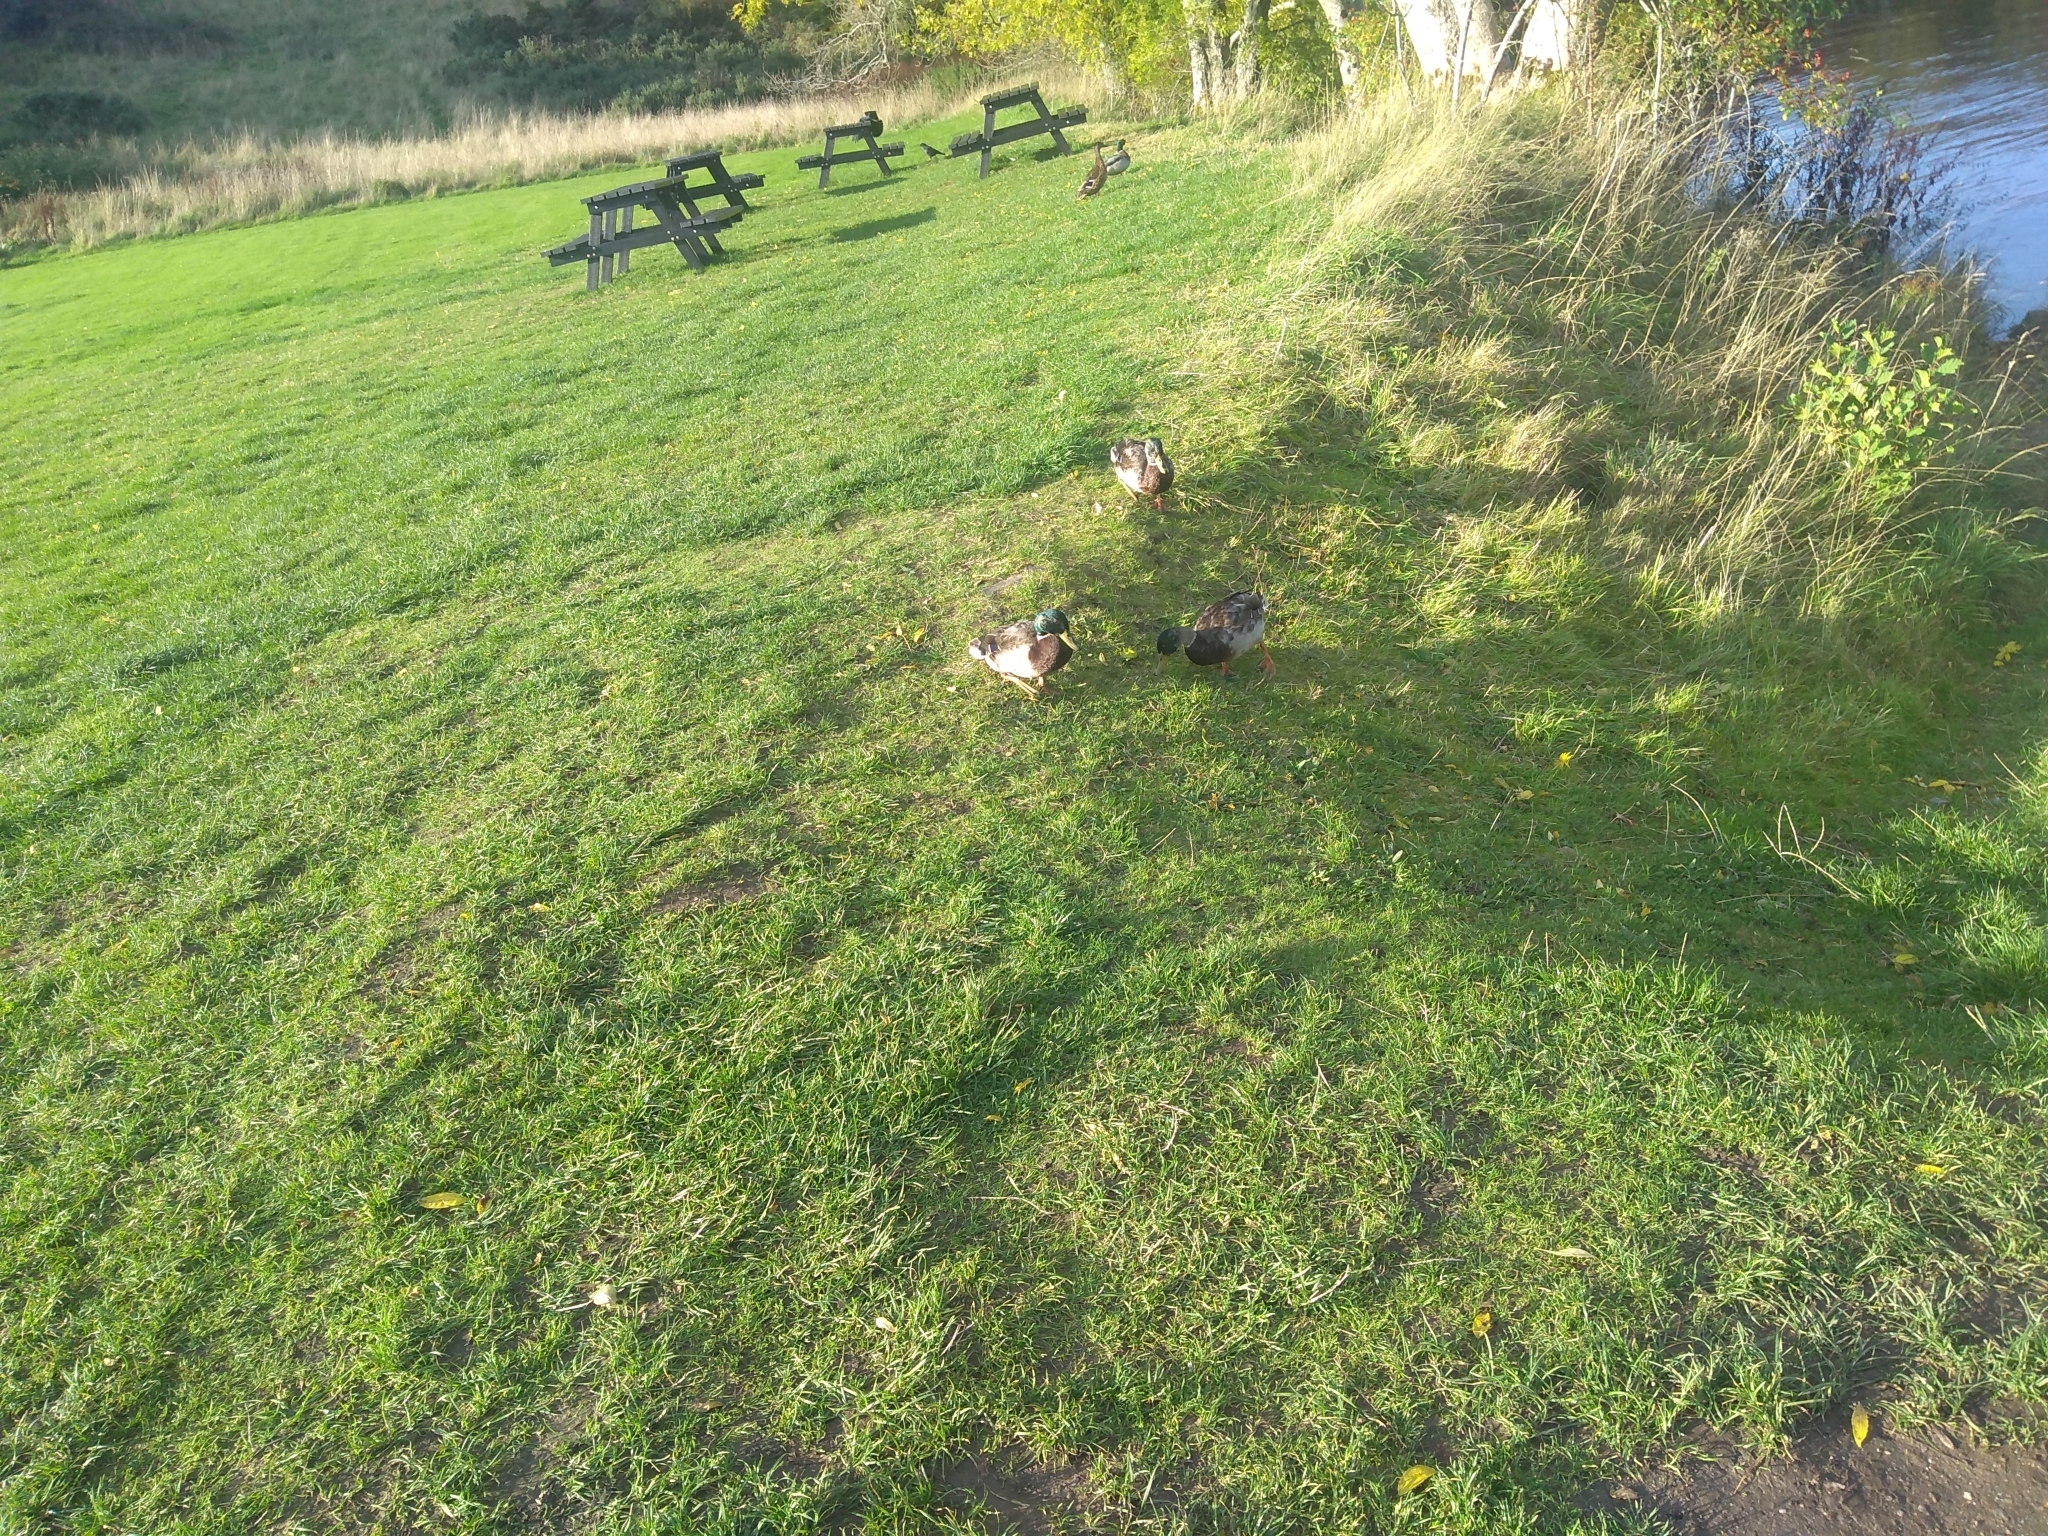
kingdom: Animalia
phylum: Chordata
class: Aves
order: Anseriformes
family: Anatidae
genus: Anas
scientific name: Anas platyrhynchos
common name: Mallard
